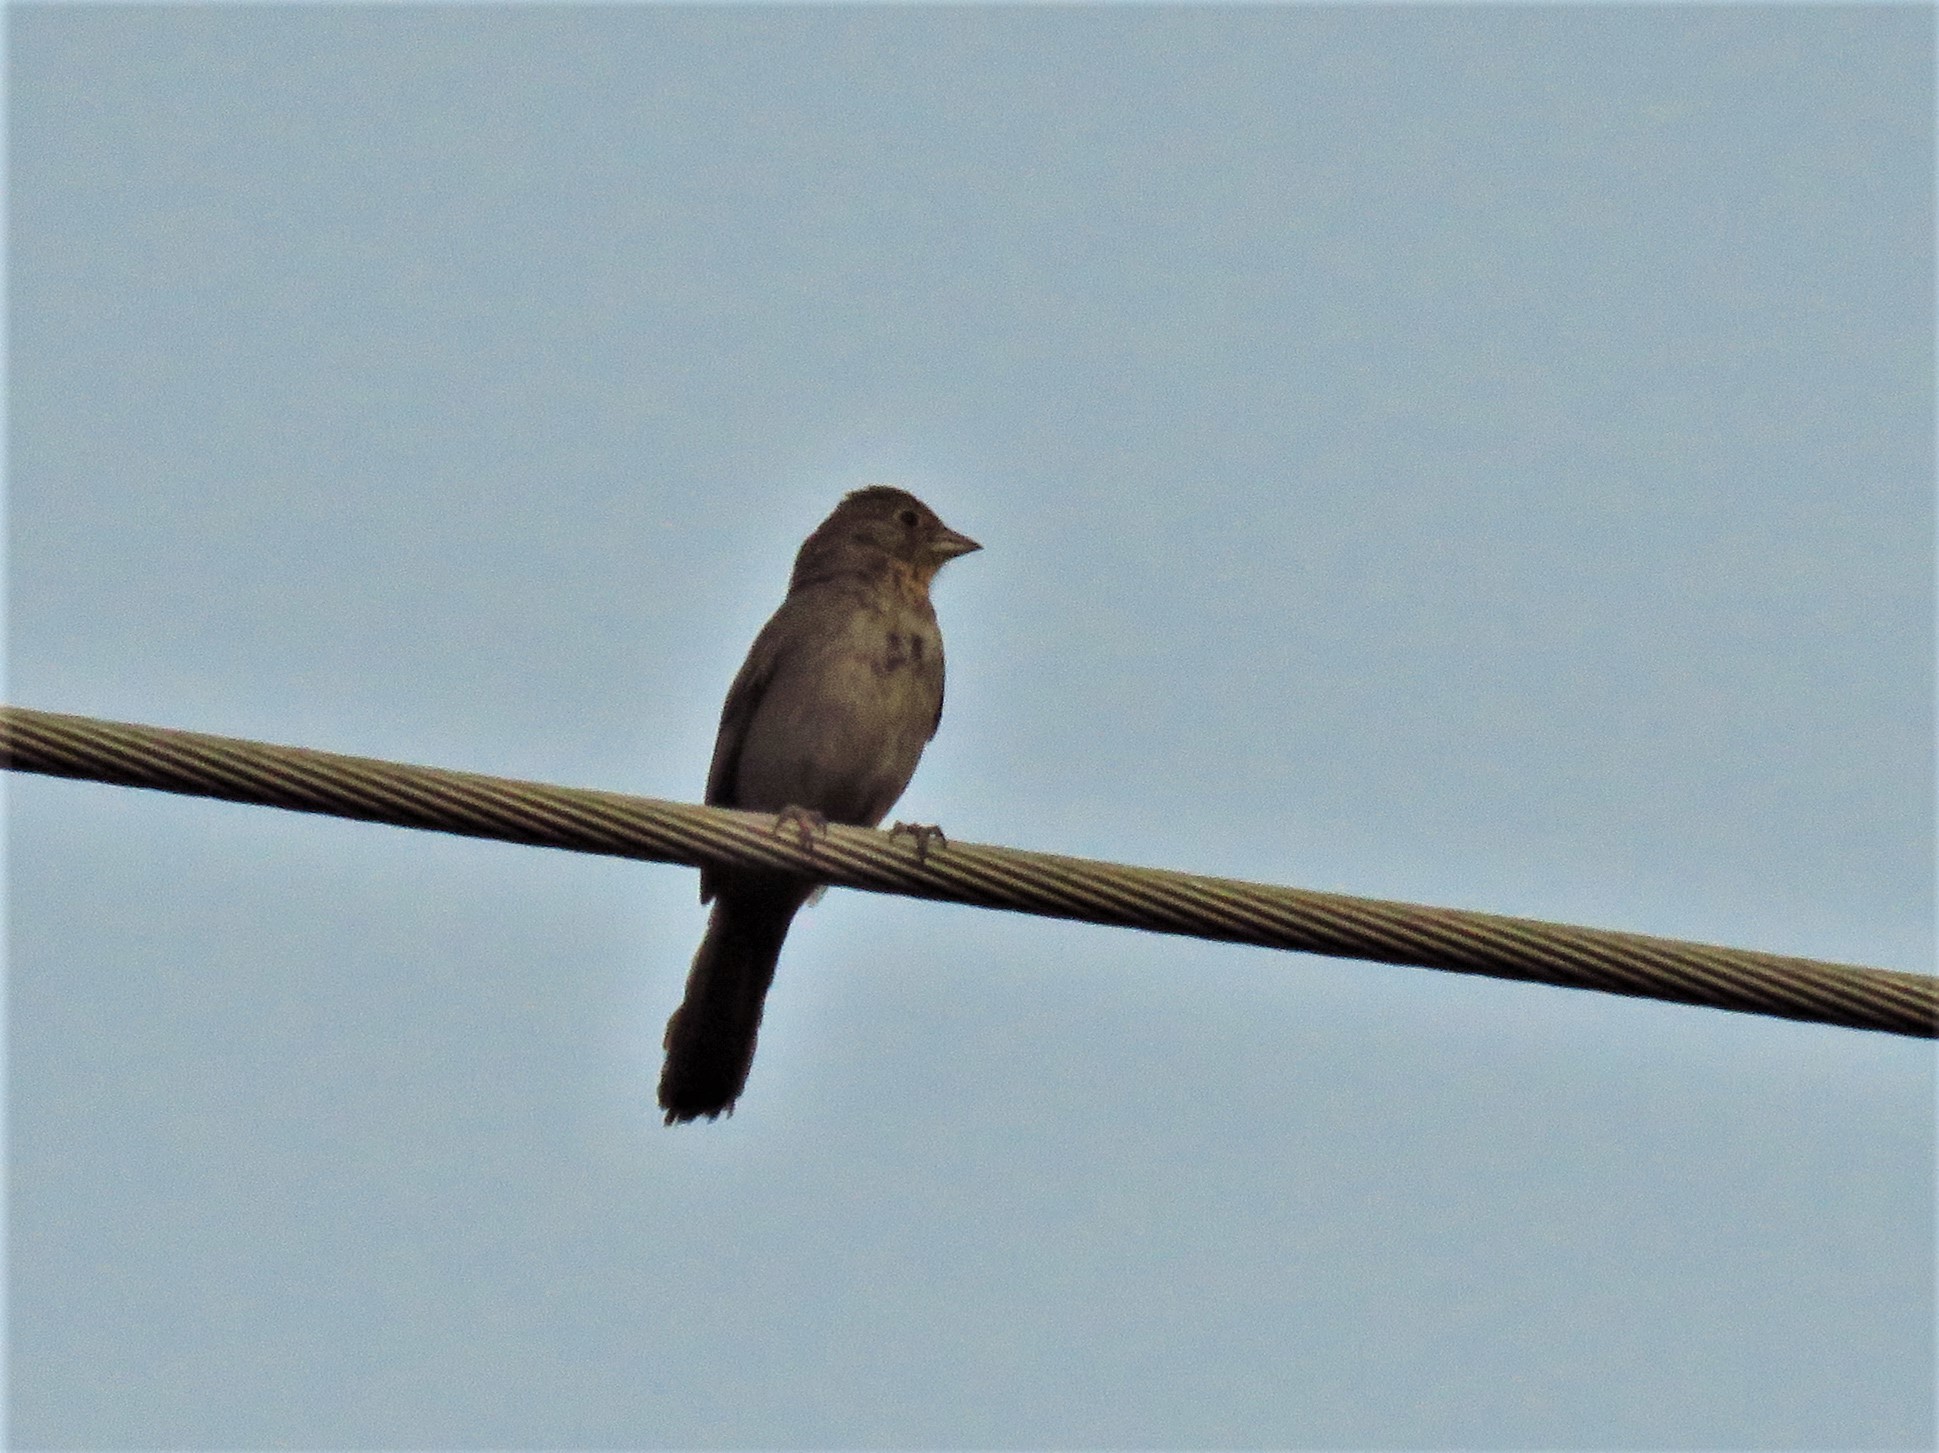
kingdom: Animalia
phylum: Chordata
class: Aves
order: Passeriformes
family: Passerellidae
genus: Melozone
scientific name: Melozone fusca
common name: Canyon towhee
